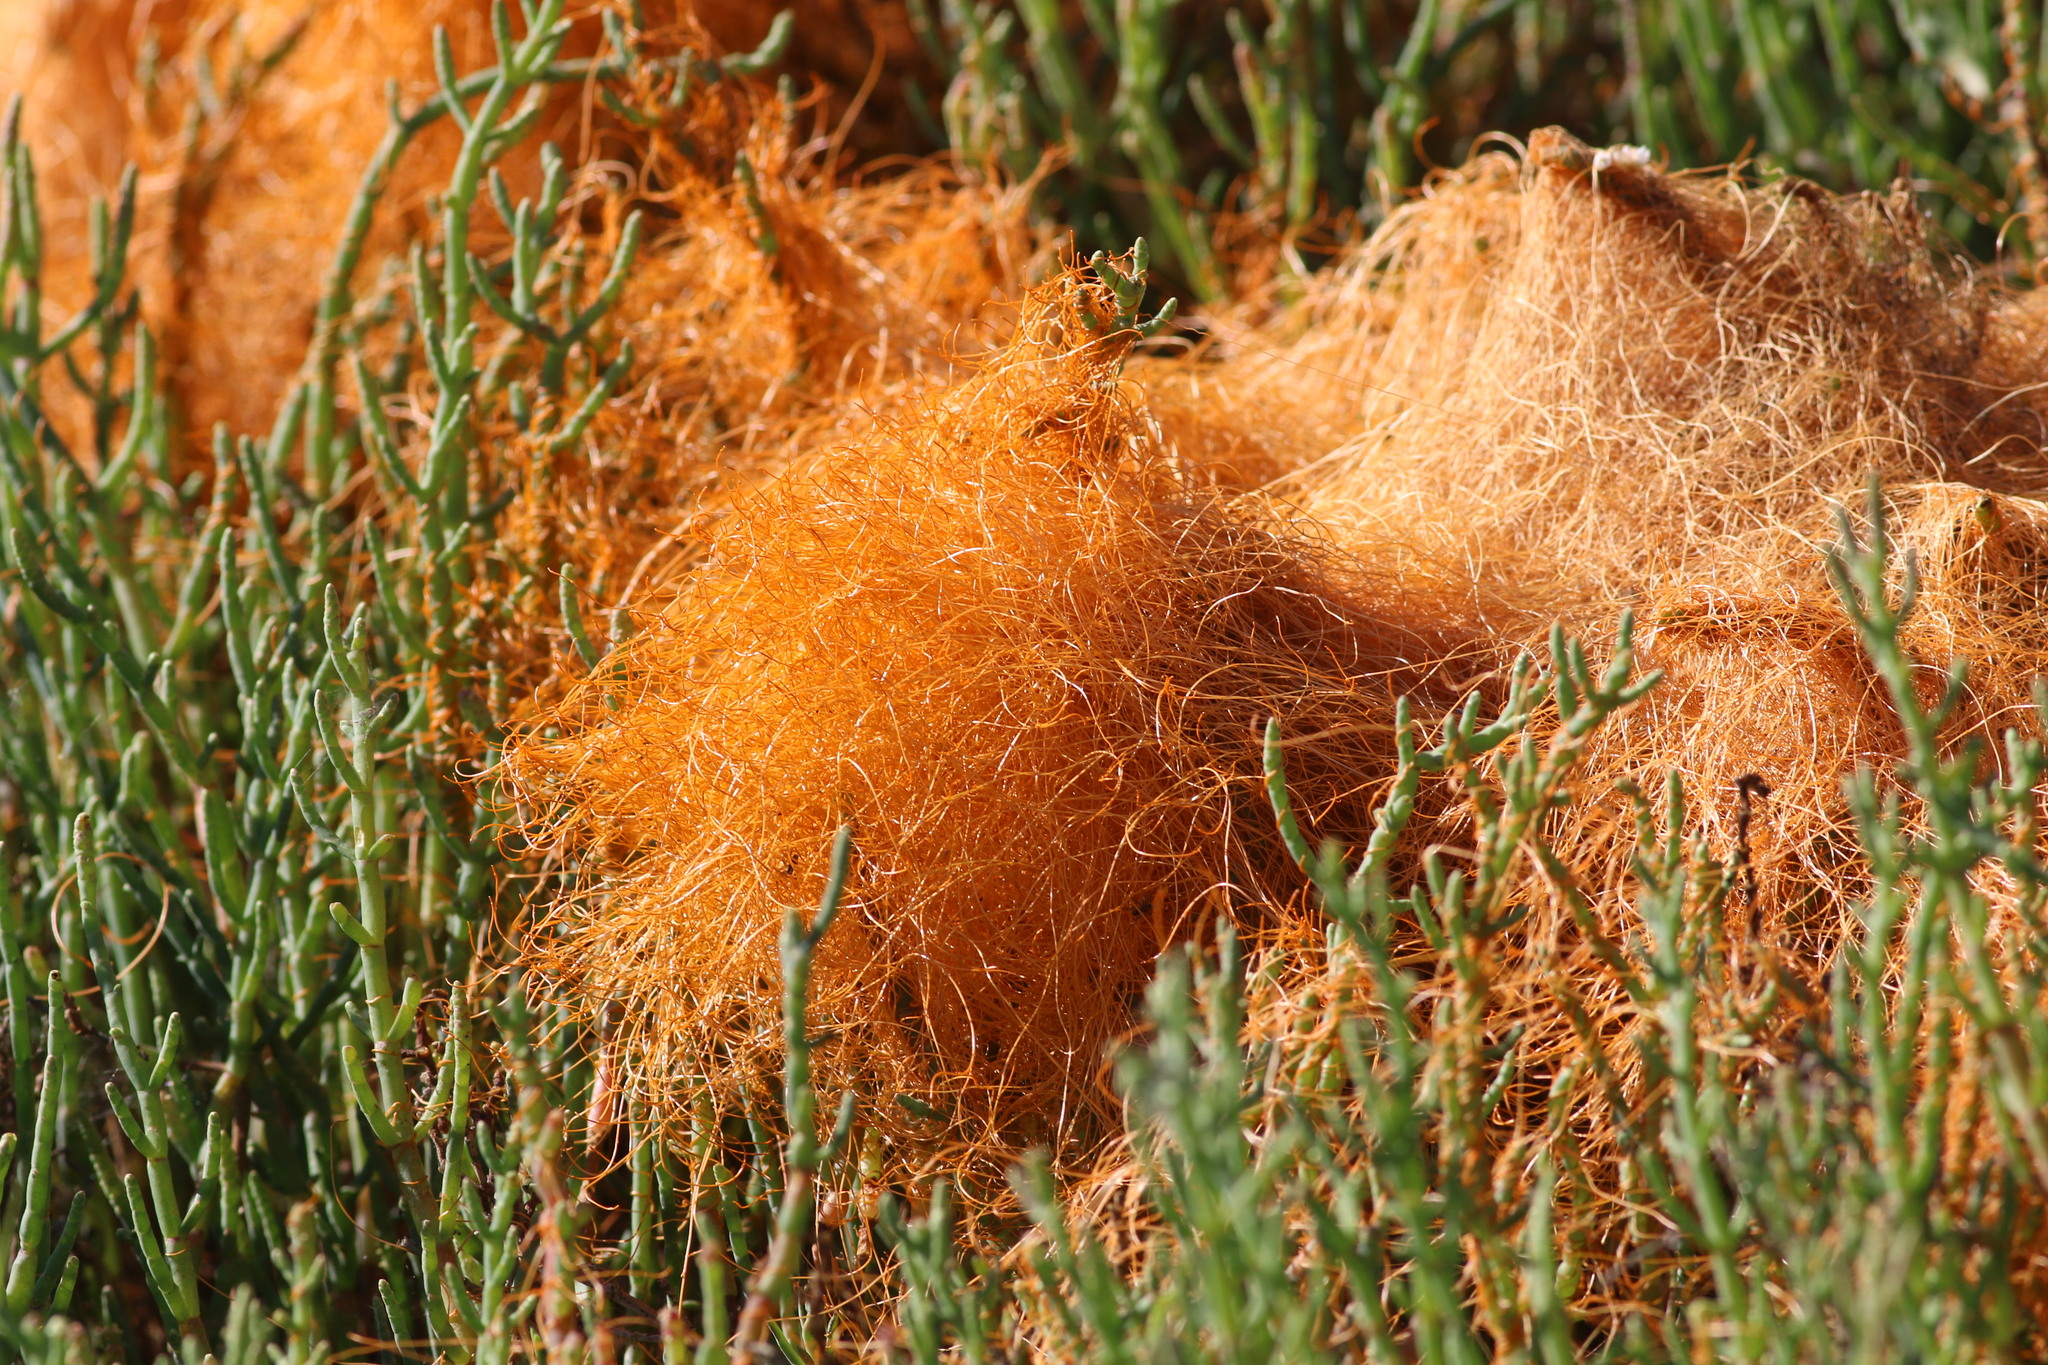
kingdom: Plantae
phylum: Tracheophyta
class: Magnoliopsida
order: Solanales
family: Convolvulaceae
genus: Cuscuta
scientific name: Cuscuta pacifica
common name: Large saltmarsh dodder
